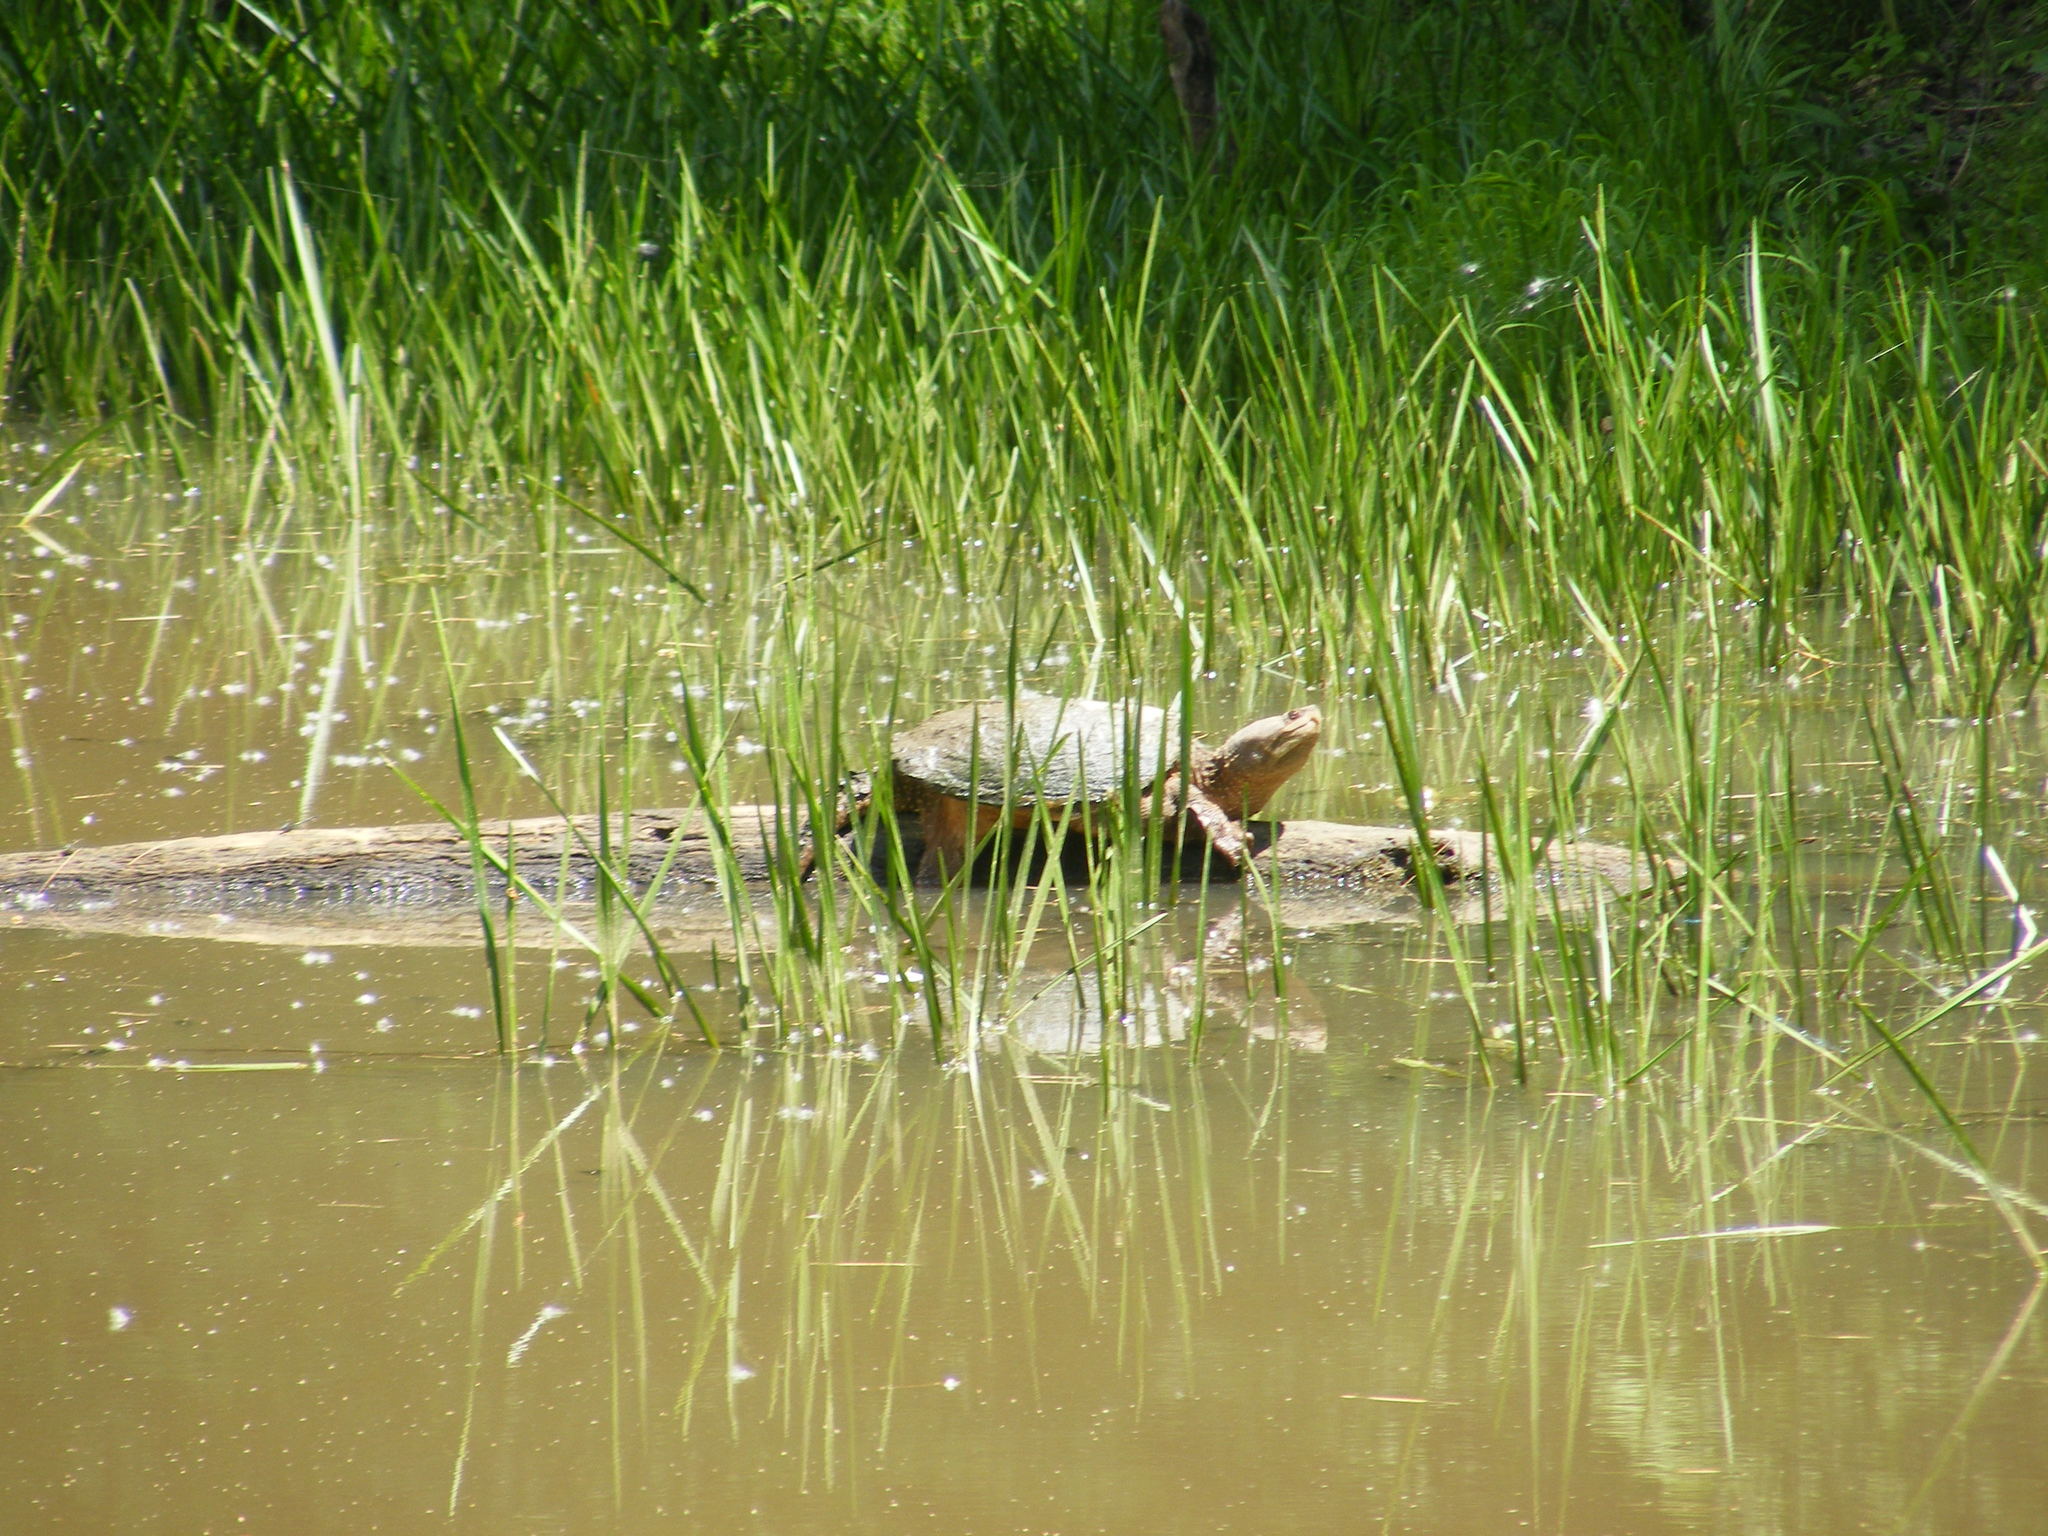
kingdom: Animalia
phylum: Chordata
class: Testudines
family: Chelydridae
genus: Chelydra
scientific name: Chelydra serpentina
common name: Common snapping turtle
